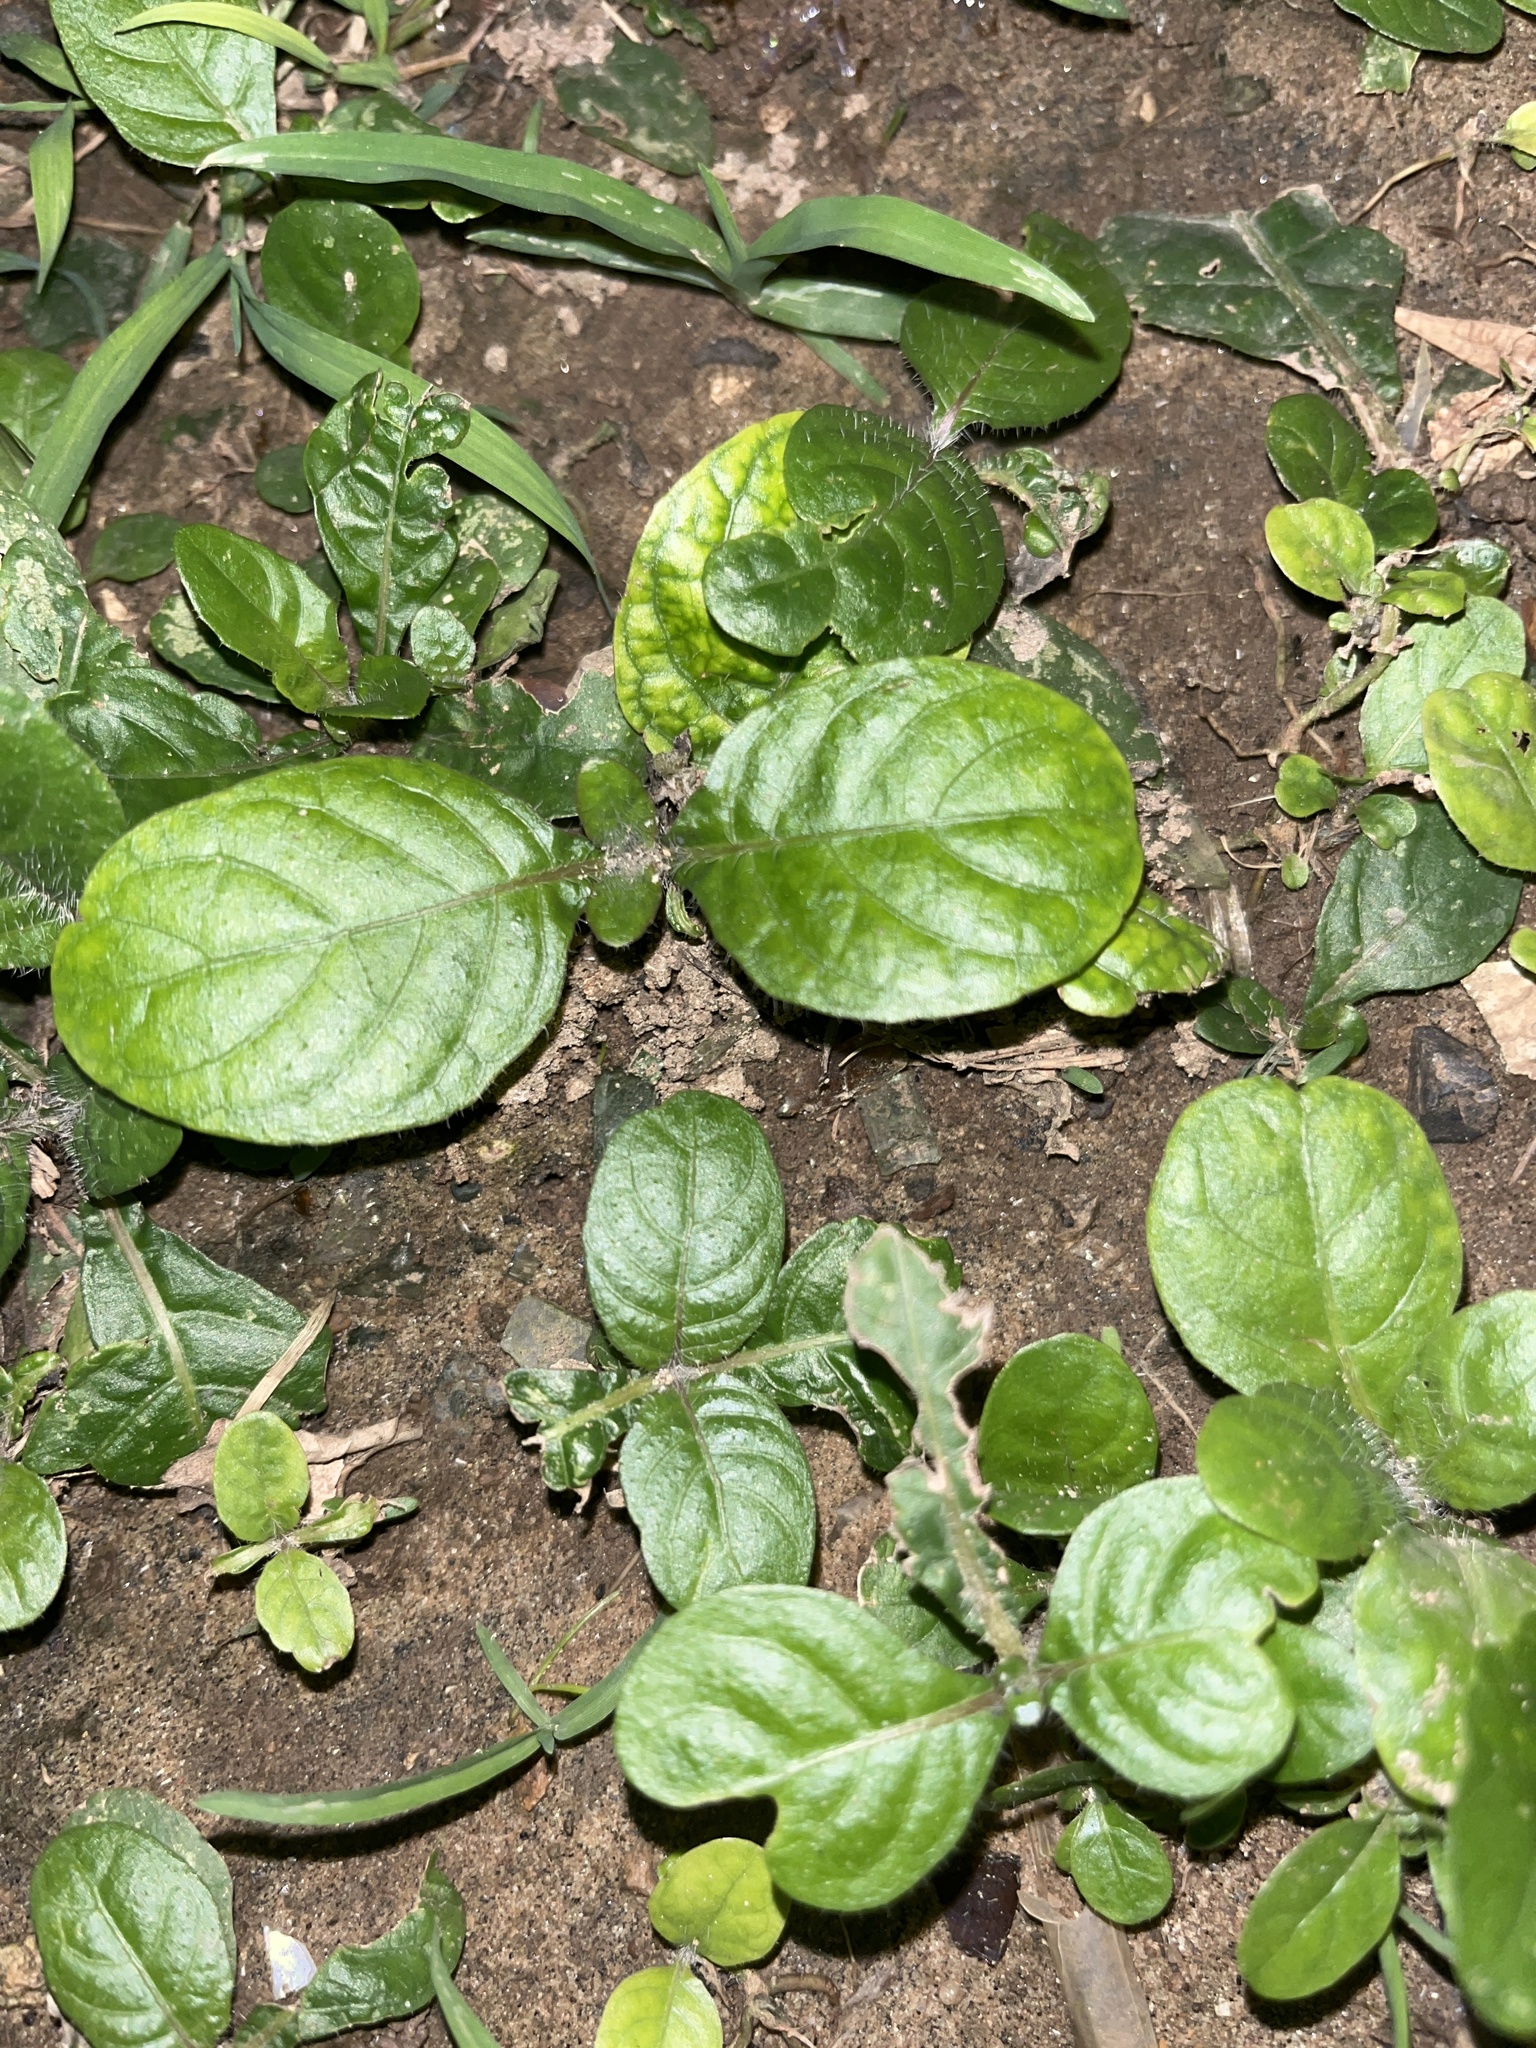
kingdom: Plantae
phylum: Tracheophyta
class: Magnoliopsida
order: Lamiales
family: Acanthaceae
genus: Ruellia
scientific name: Ruellia tuberosa
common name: Devil's bit
